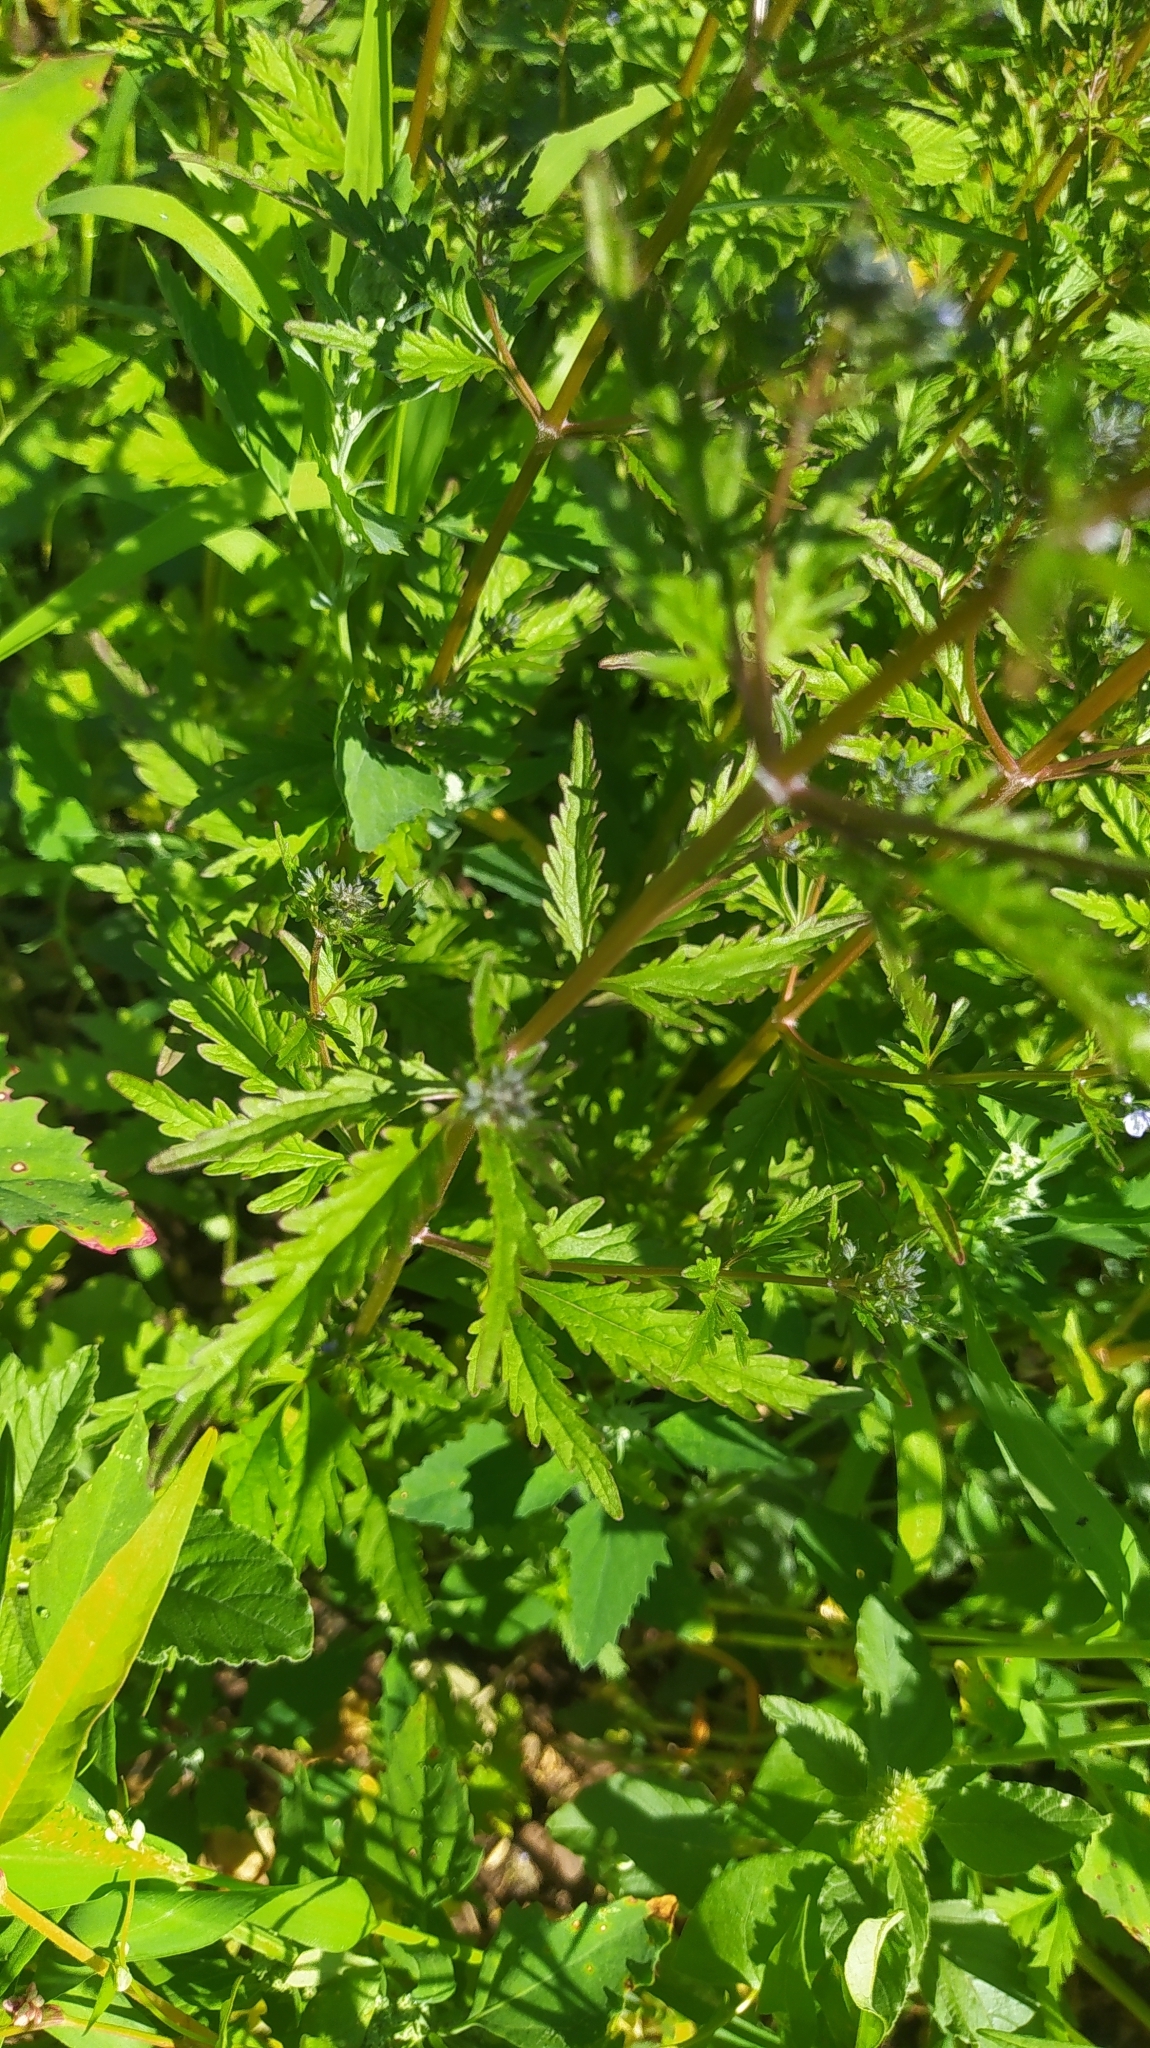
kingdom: Plantae
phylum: Tracheophyta
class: Magnoliopsida
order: Lamiales
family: Lamiaceae
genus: Amethystea
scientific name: Amethystea caerulea
